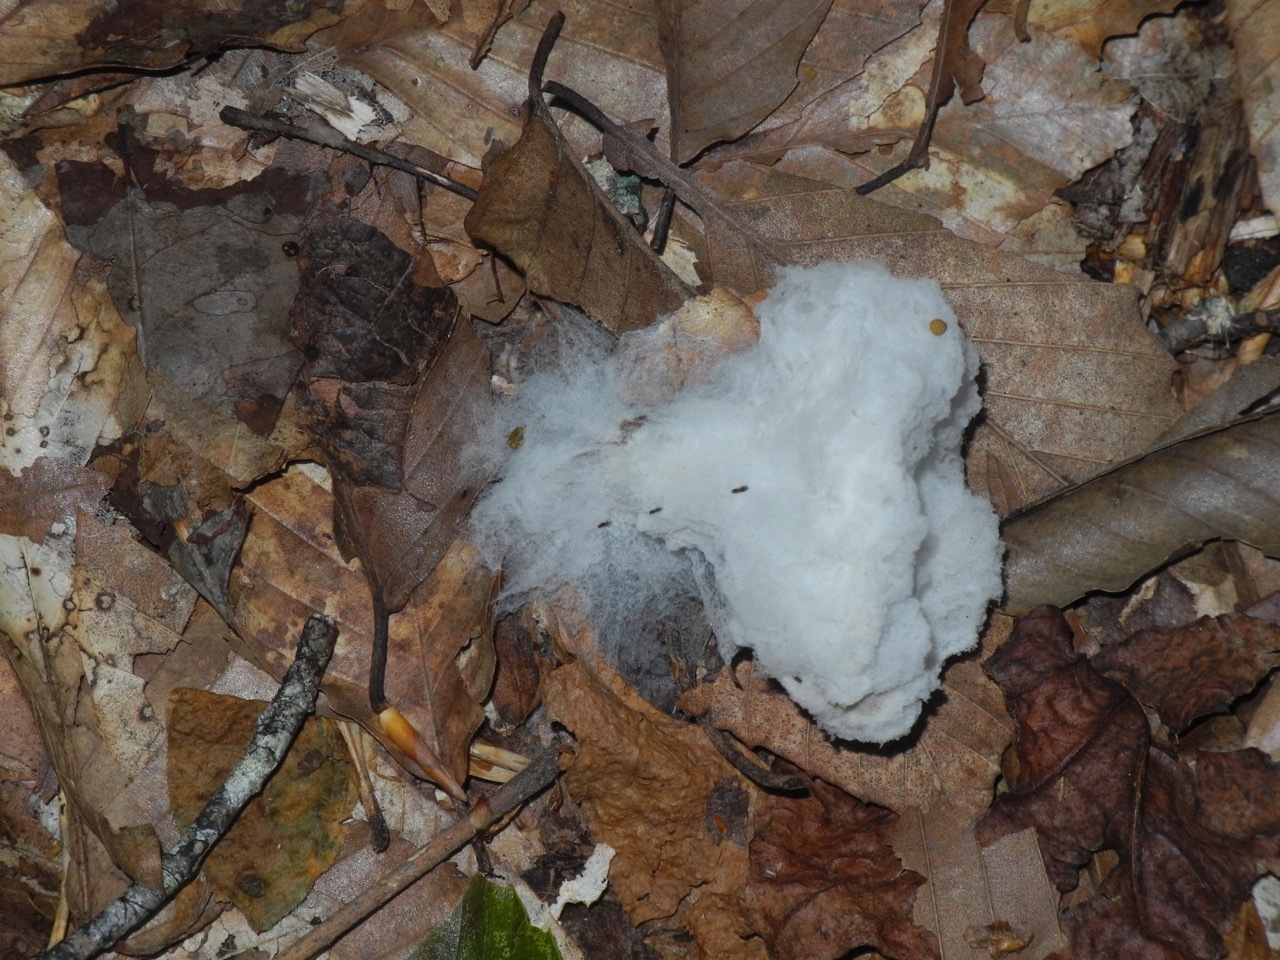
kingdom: Fungi
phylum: Mucoromycota
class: Mucoromycetes
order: Mucorales
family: Rhizopodaceae
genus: Syzygites
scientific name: Syzygites megalocarpus
